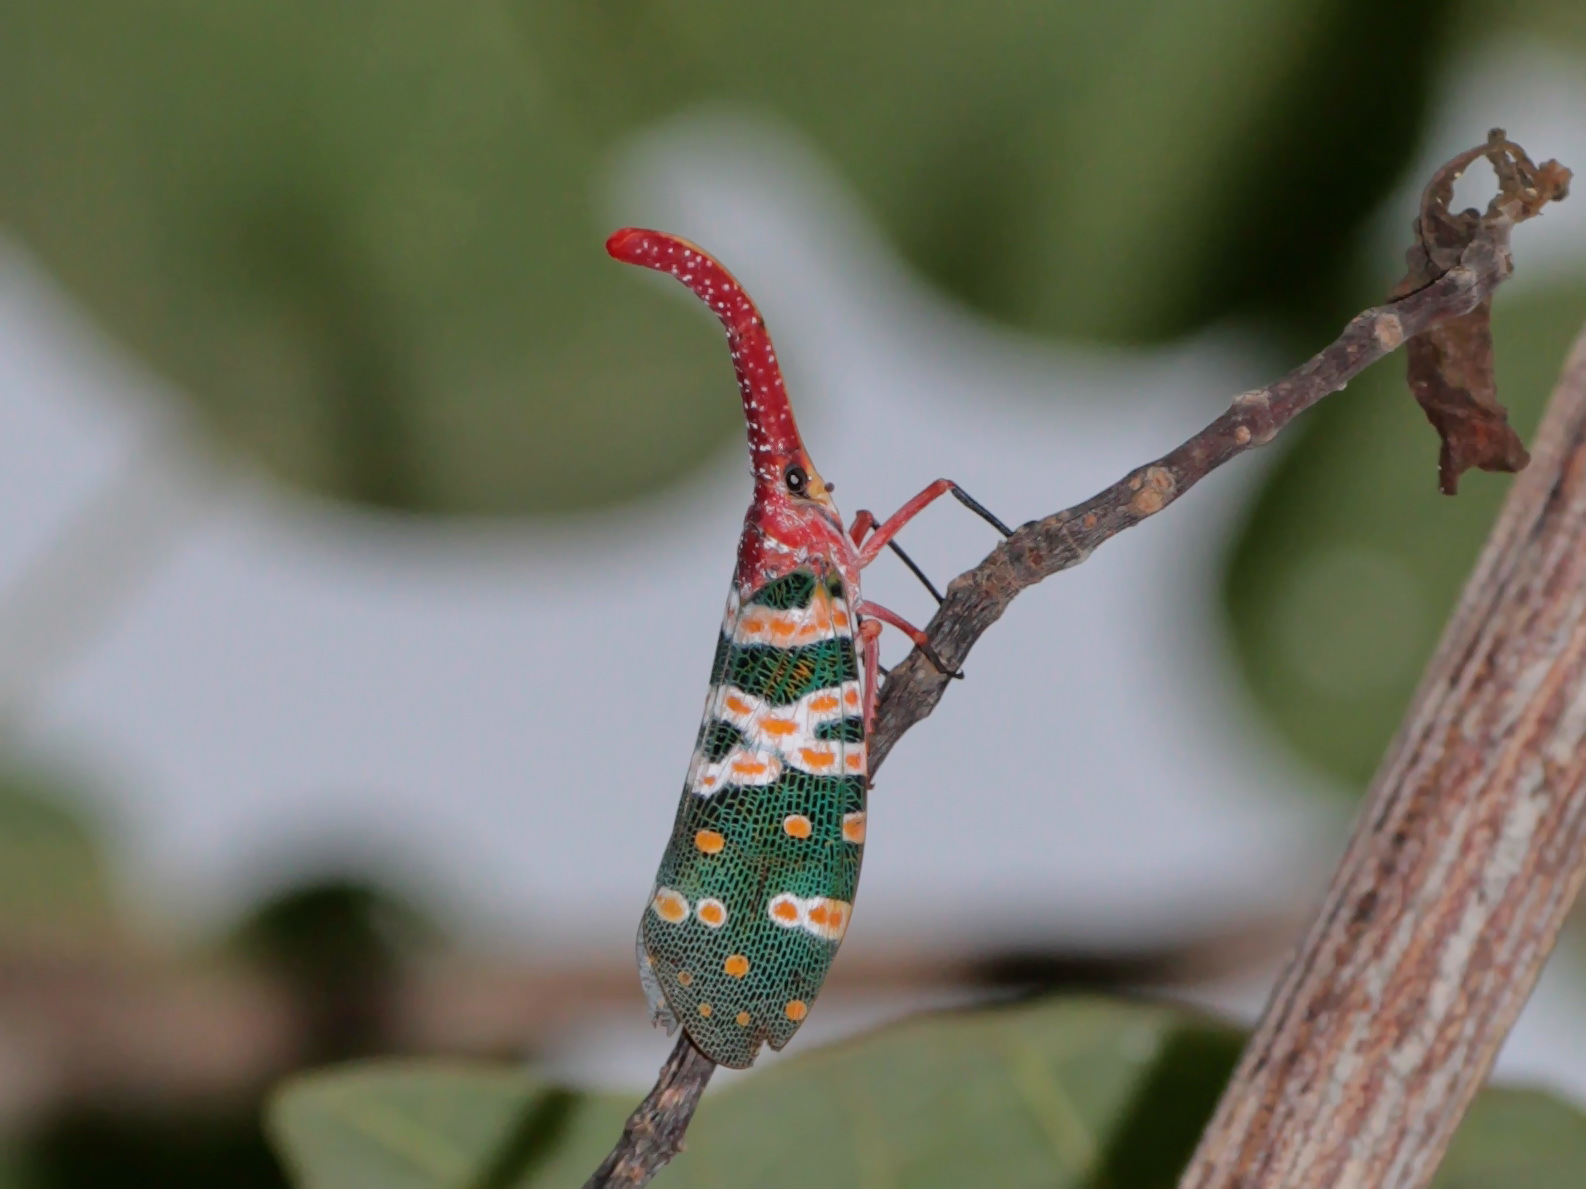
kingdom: Animalia
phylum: Arthropoda
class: Insecta
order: Hemiptera
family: Fulgoridae
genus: Pyrops
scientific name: Pyrops candelaria
